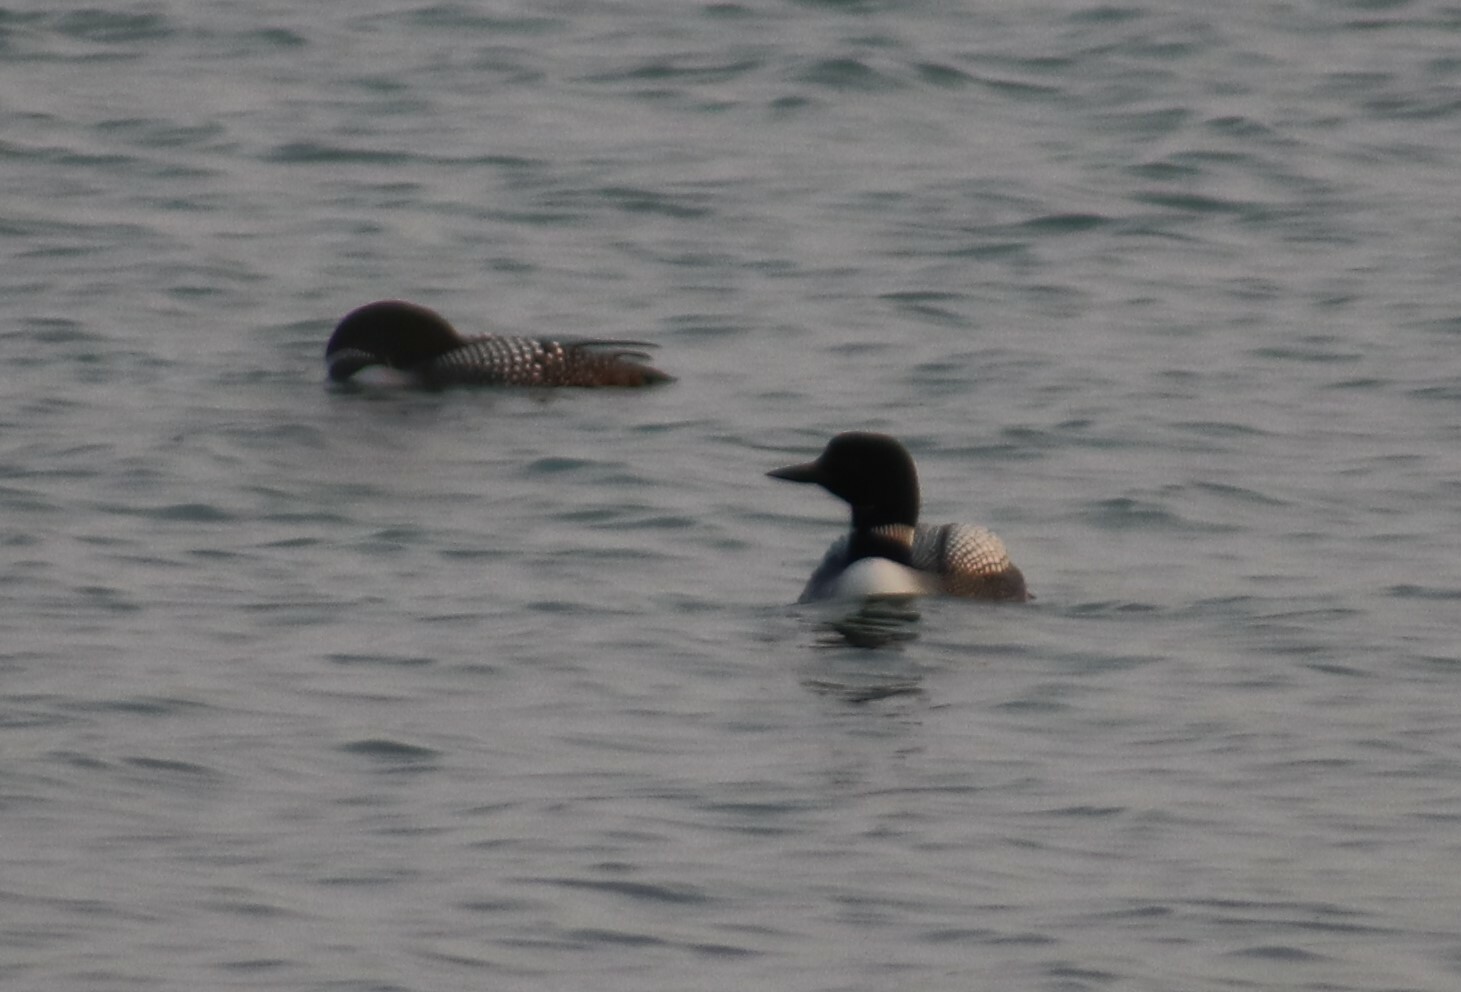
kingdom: Animalia
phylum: Chordata
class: Aves
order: Gaviiformes
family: Gaviidae
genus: Gavia
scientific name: Gavia immer
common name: Common loon
